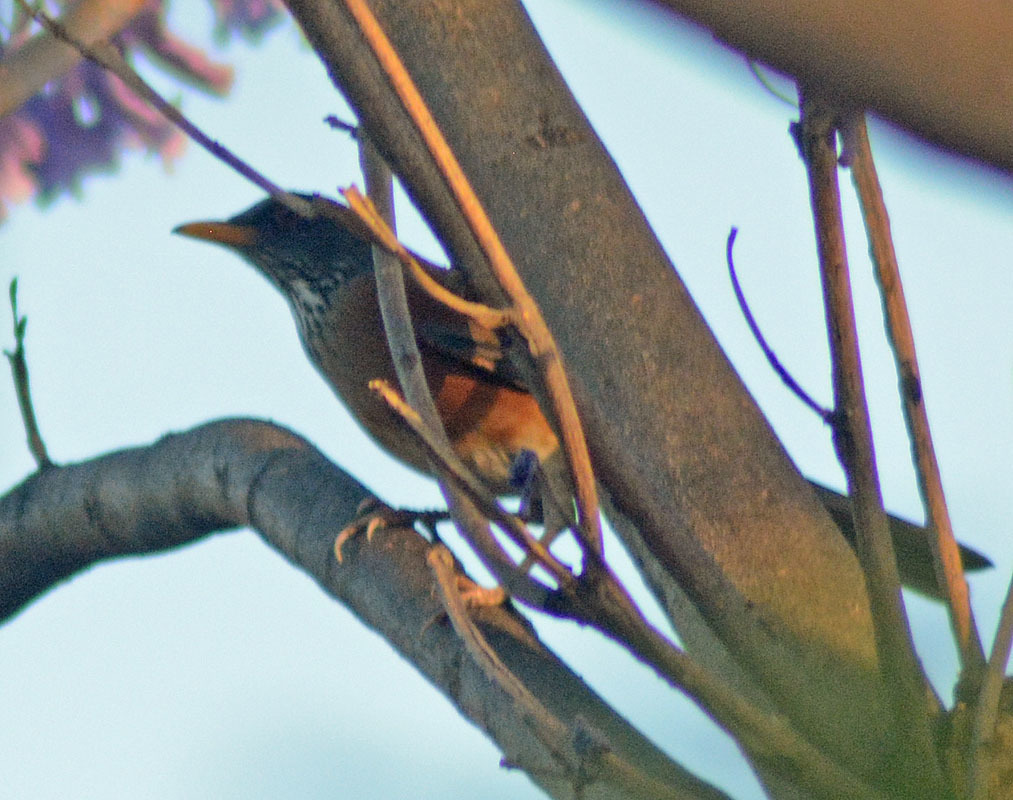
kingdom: Animalia
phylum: Chordata
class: Aves
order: Passeriformes
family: Turdidae
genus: Turdus
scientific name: Turdus rufopalliatus
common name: Rufous-backed robin
